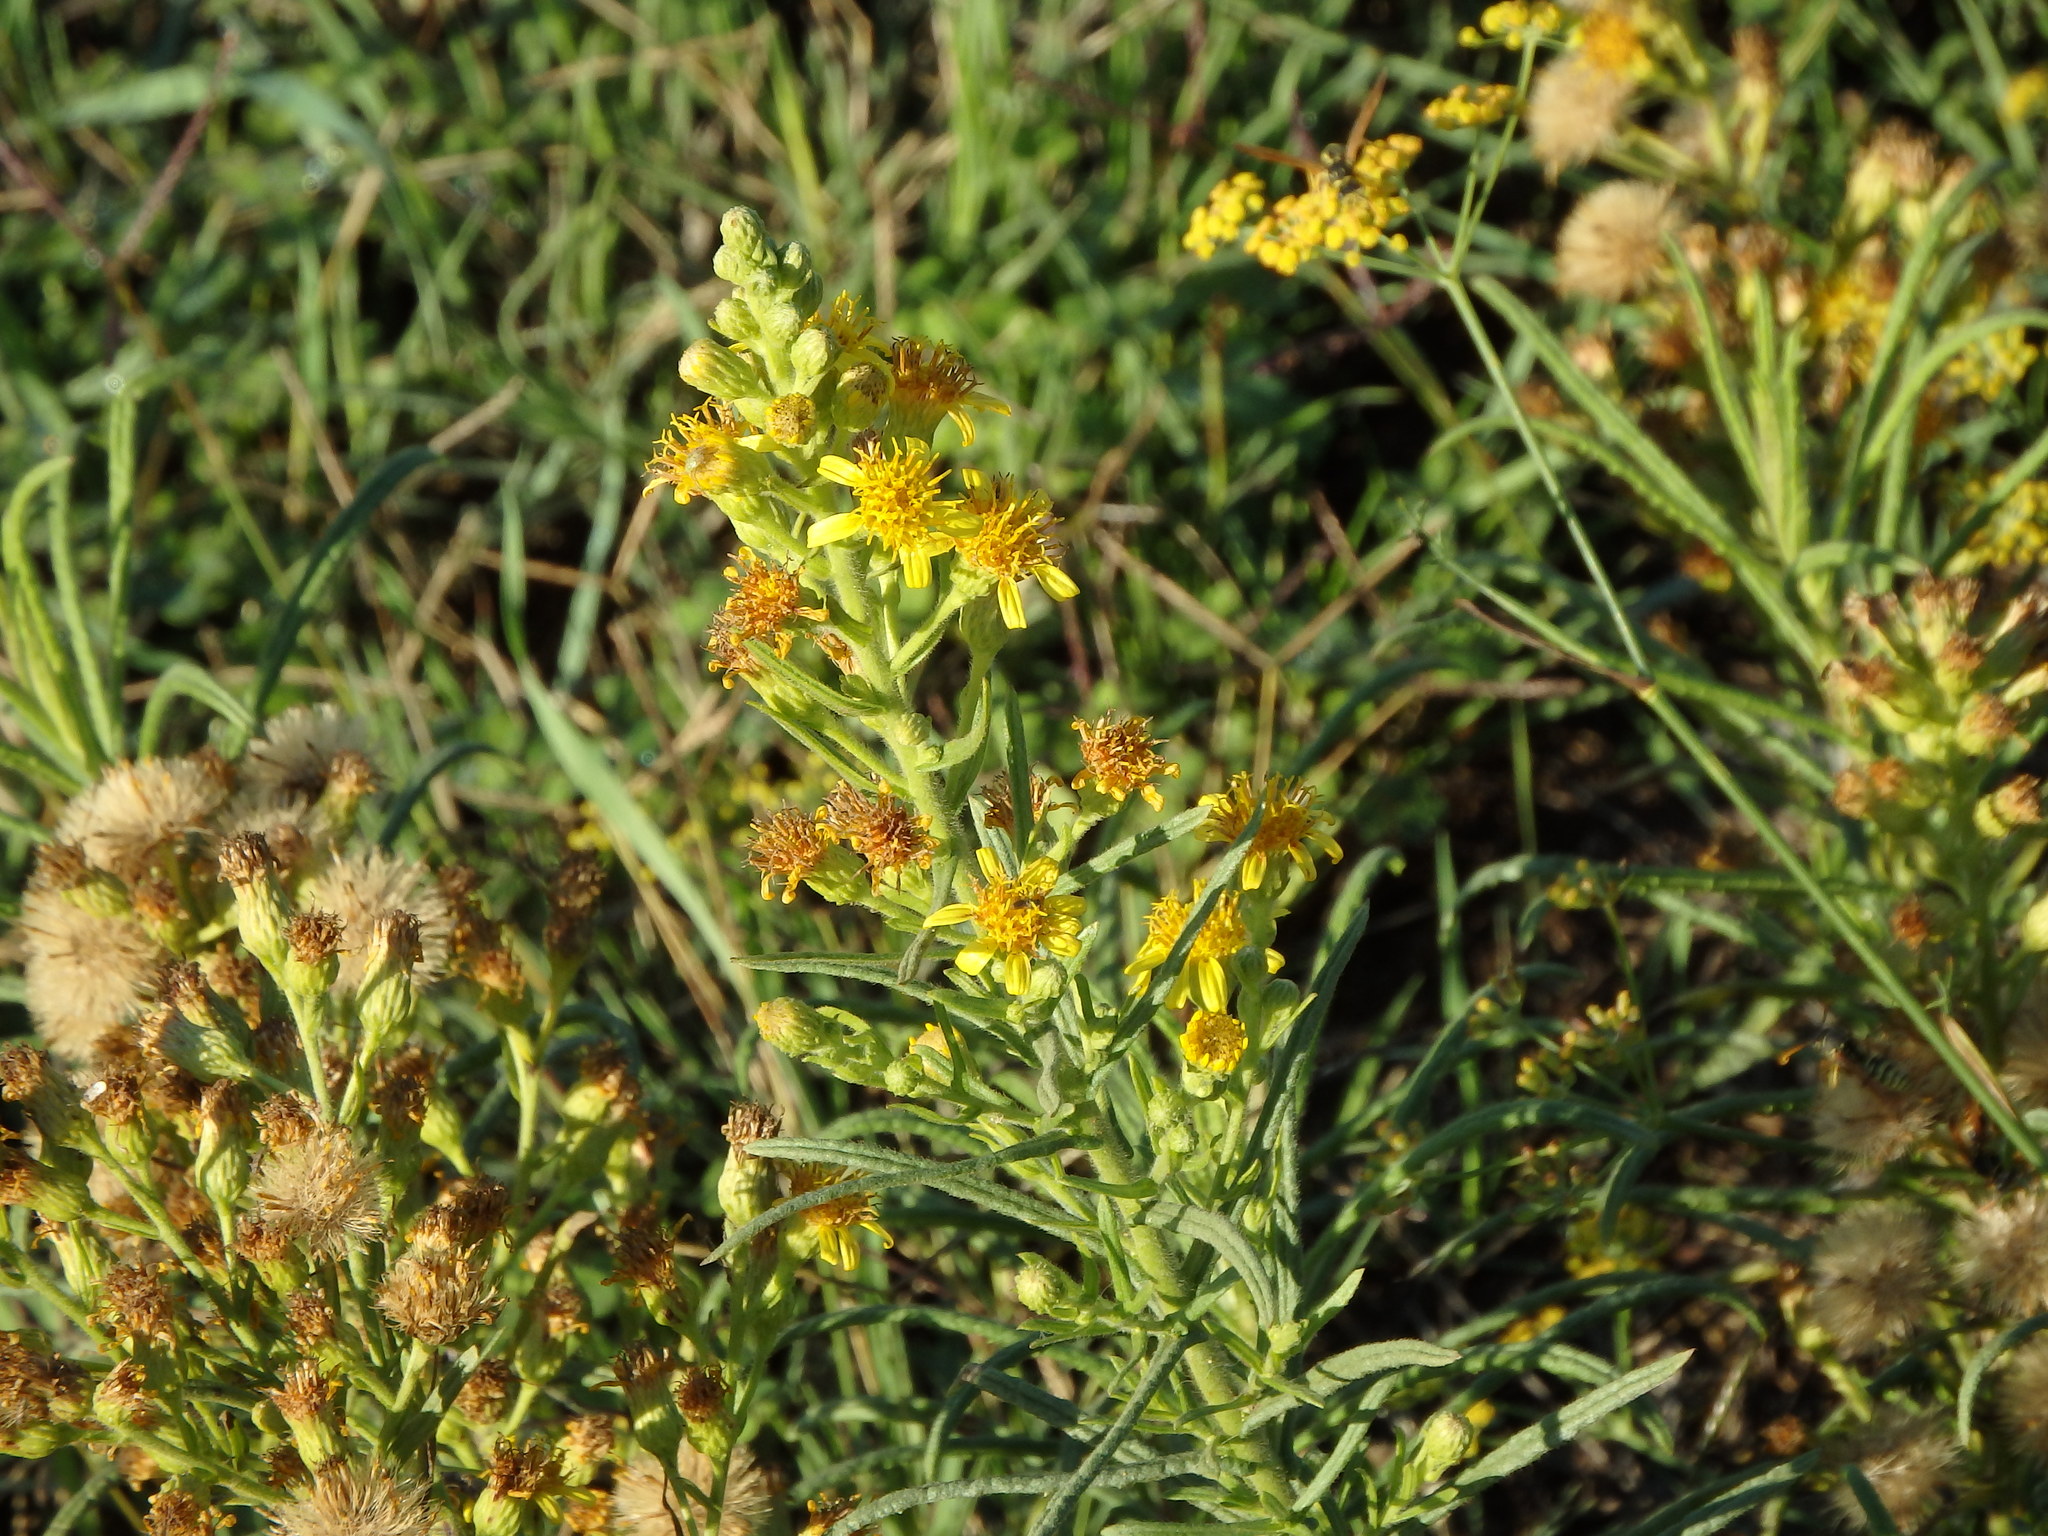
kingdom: Plantae
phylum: Tracheophyta
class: Magnoliopsida
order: Asterales
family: Asteraceae
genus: Dittrichia
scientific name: Dittrichia viscosa
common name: Woody fleabane
